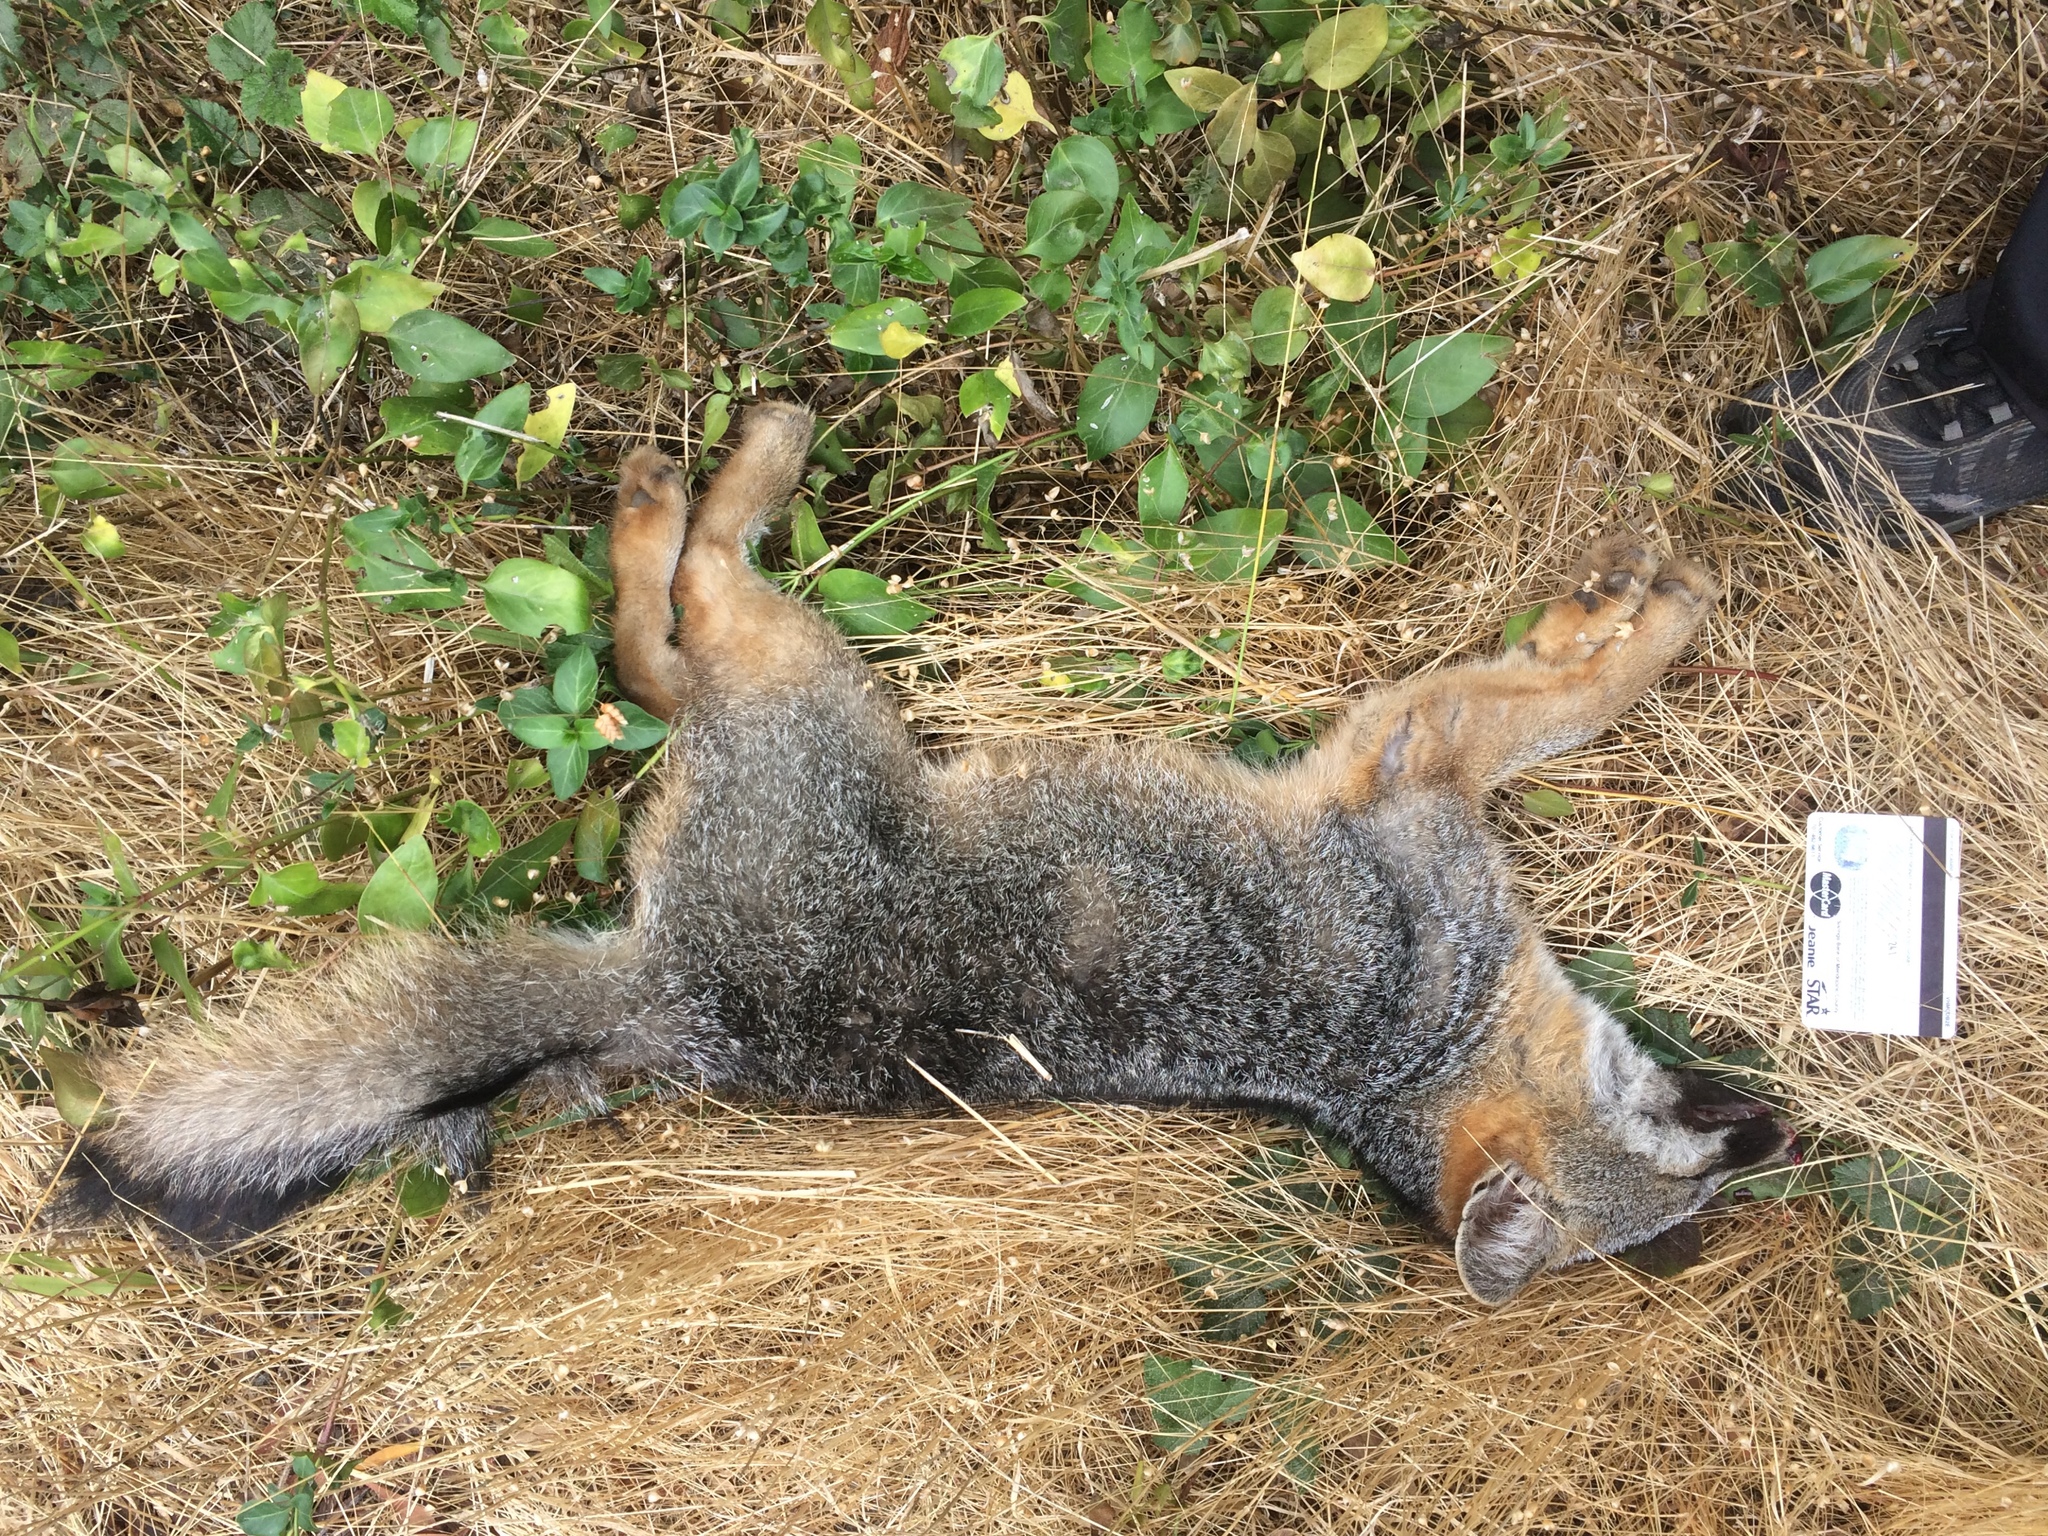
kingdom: Animalia
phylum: Chordata
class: Mammalia
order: Carnivora
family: Canidae
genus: Urocyon
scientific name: Urocyon cinereoargenteus
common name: Gray fox
